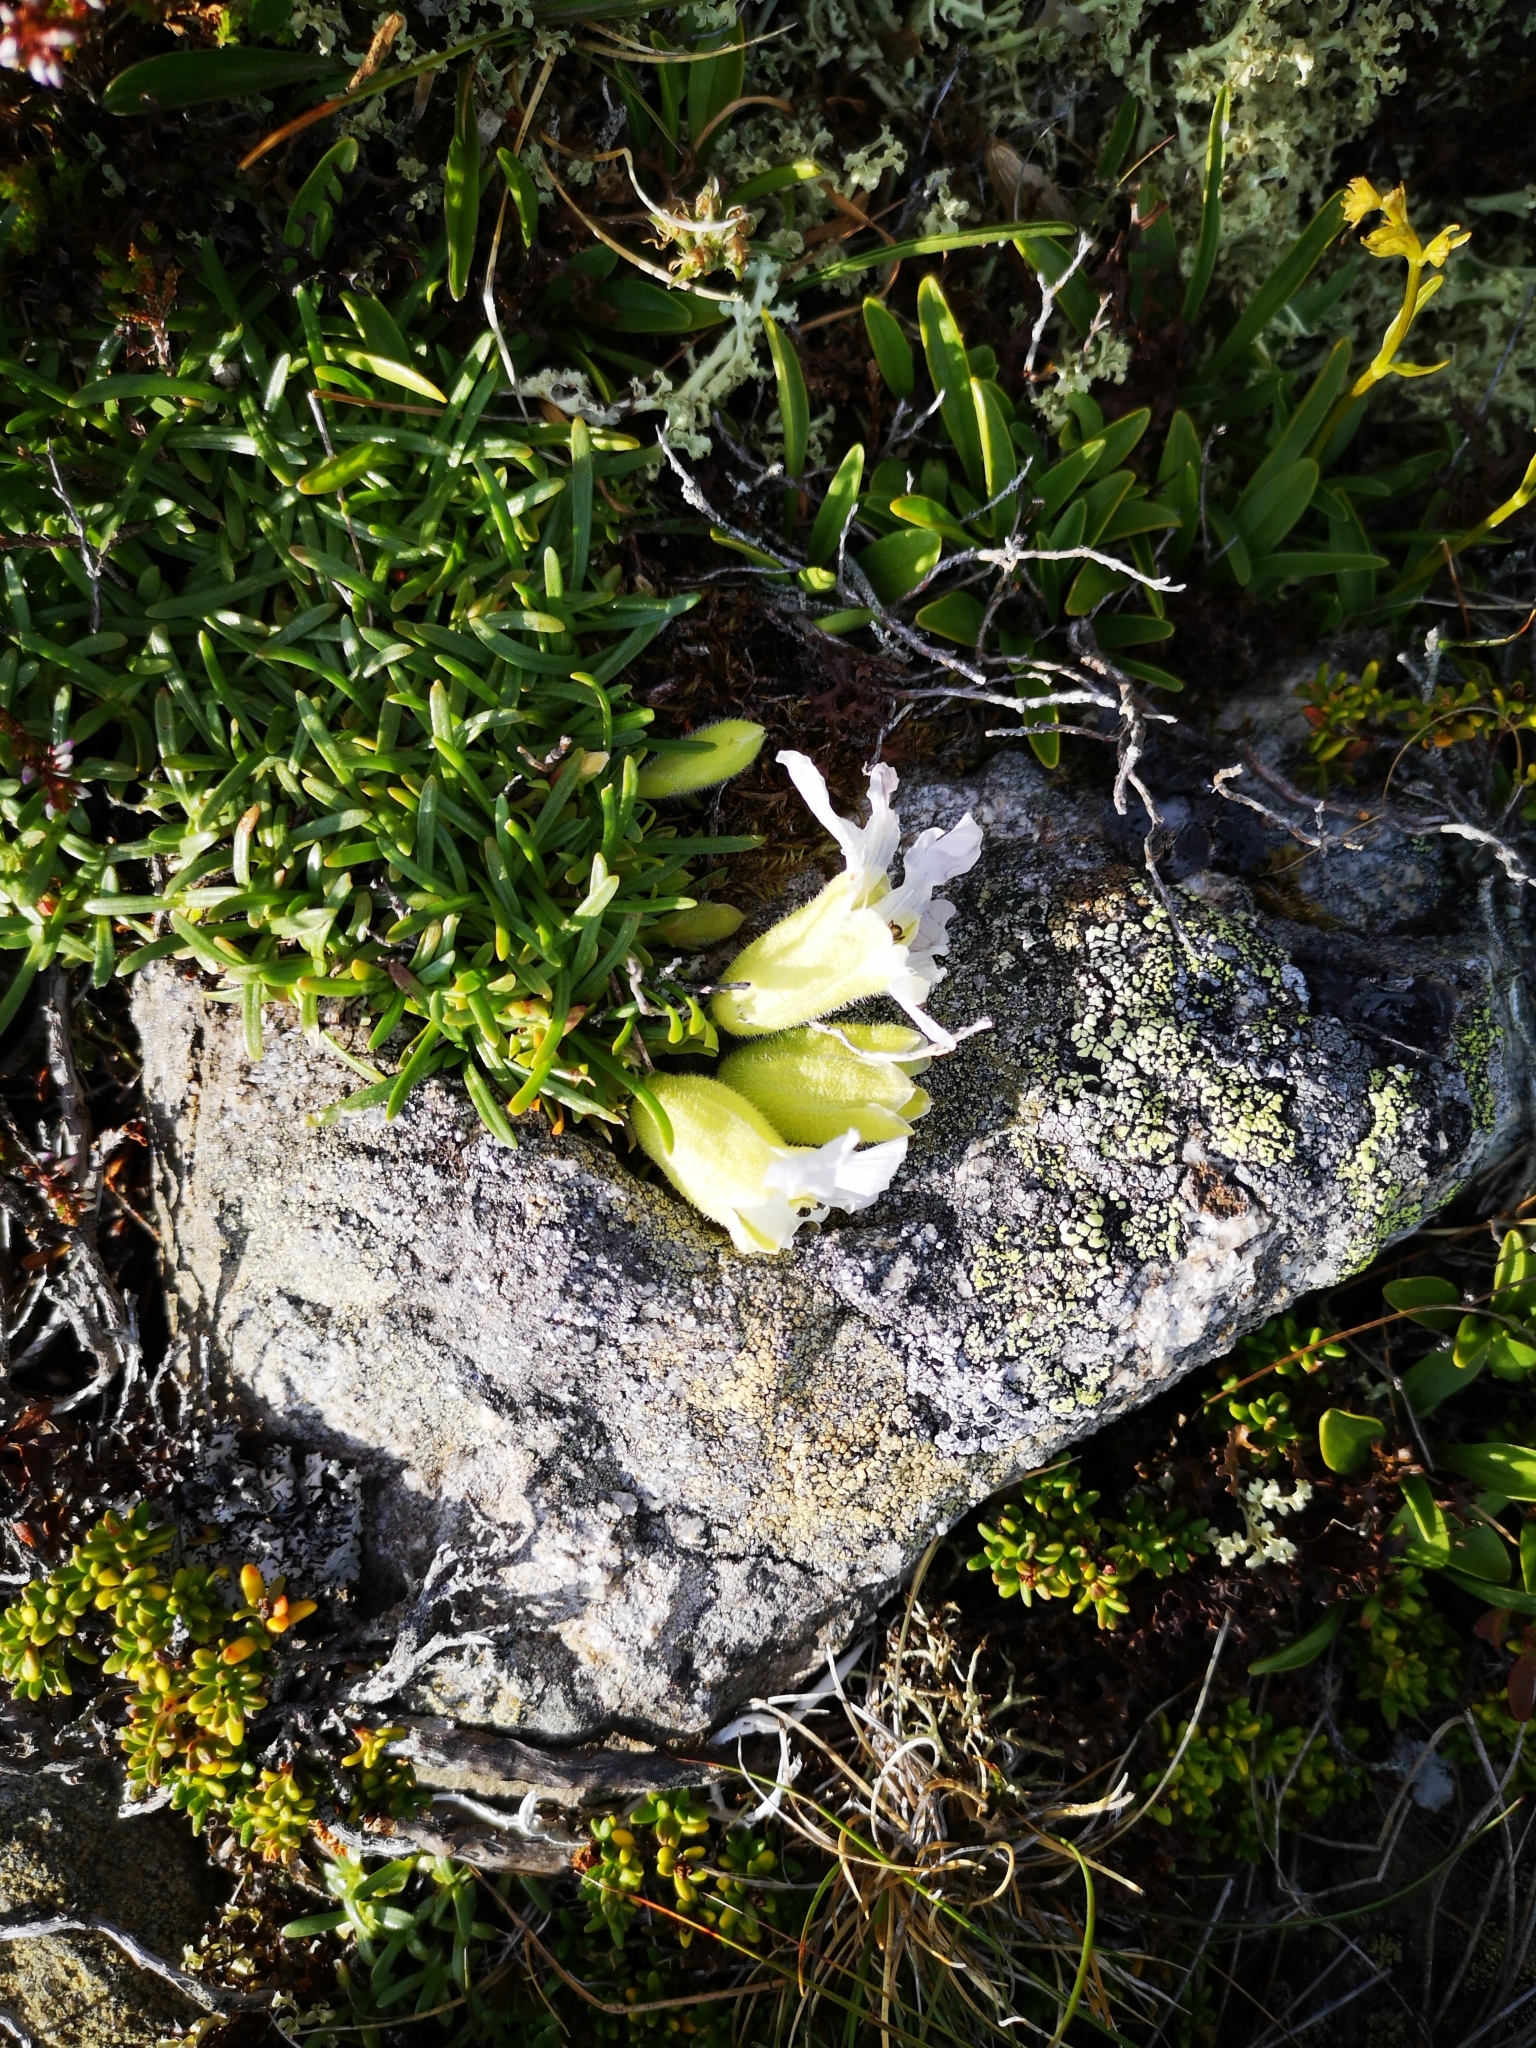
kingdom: Plantae
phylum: Tracheophyta
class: Magnoliopsida
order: Caryophyllales
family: Caryophyllaceae
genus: Saponaria
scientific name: Saponaria pumila
